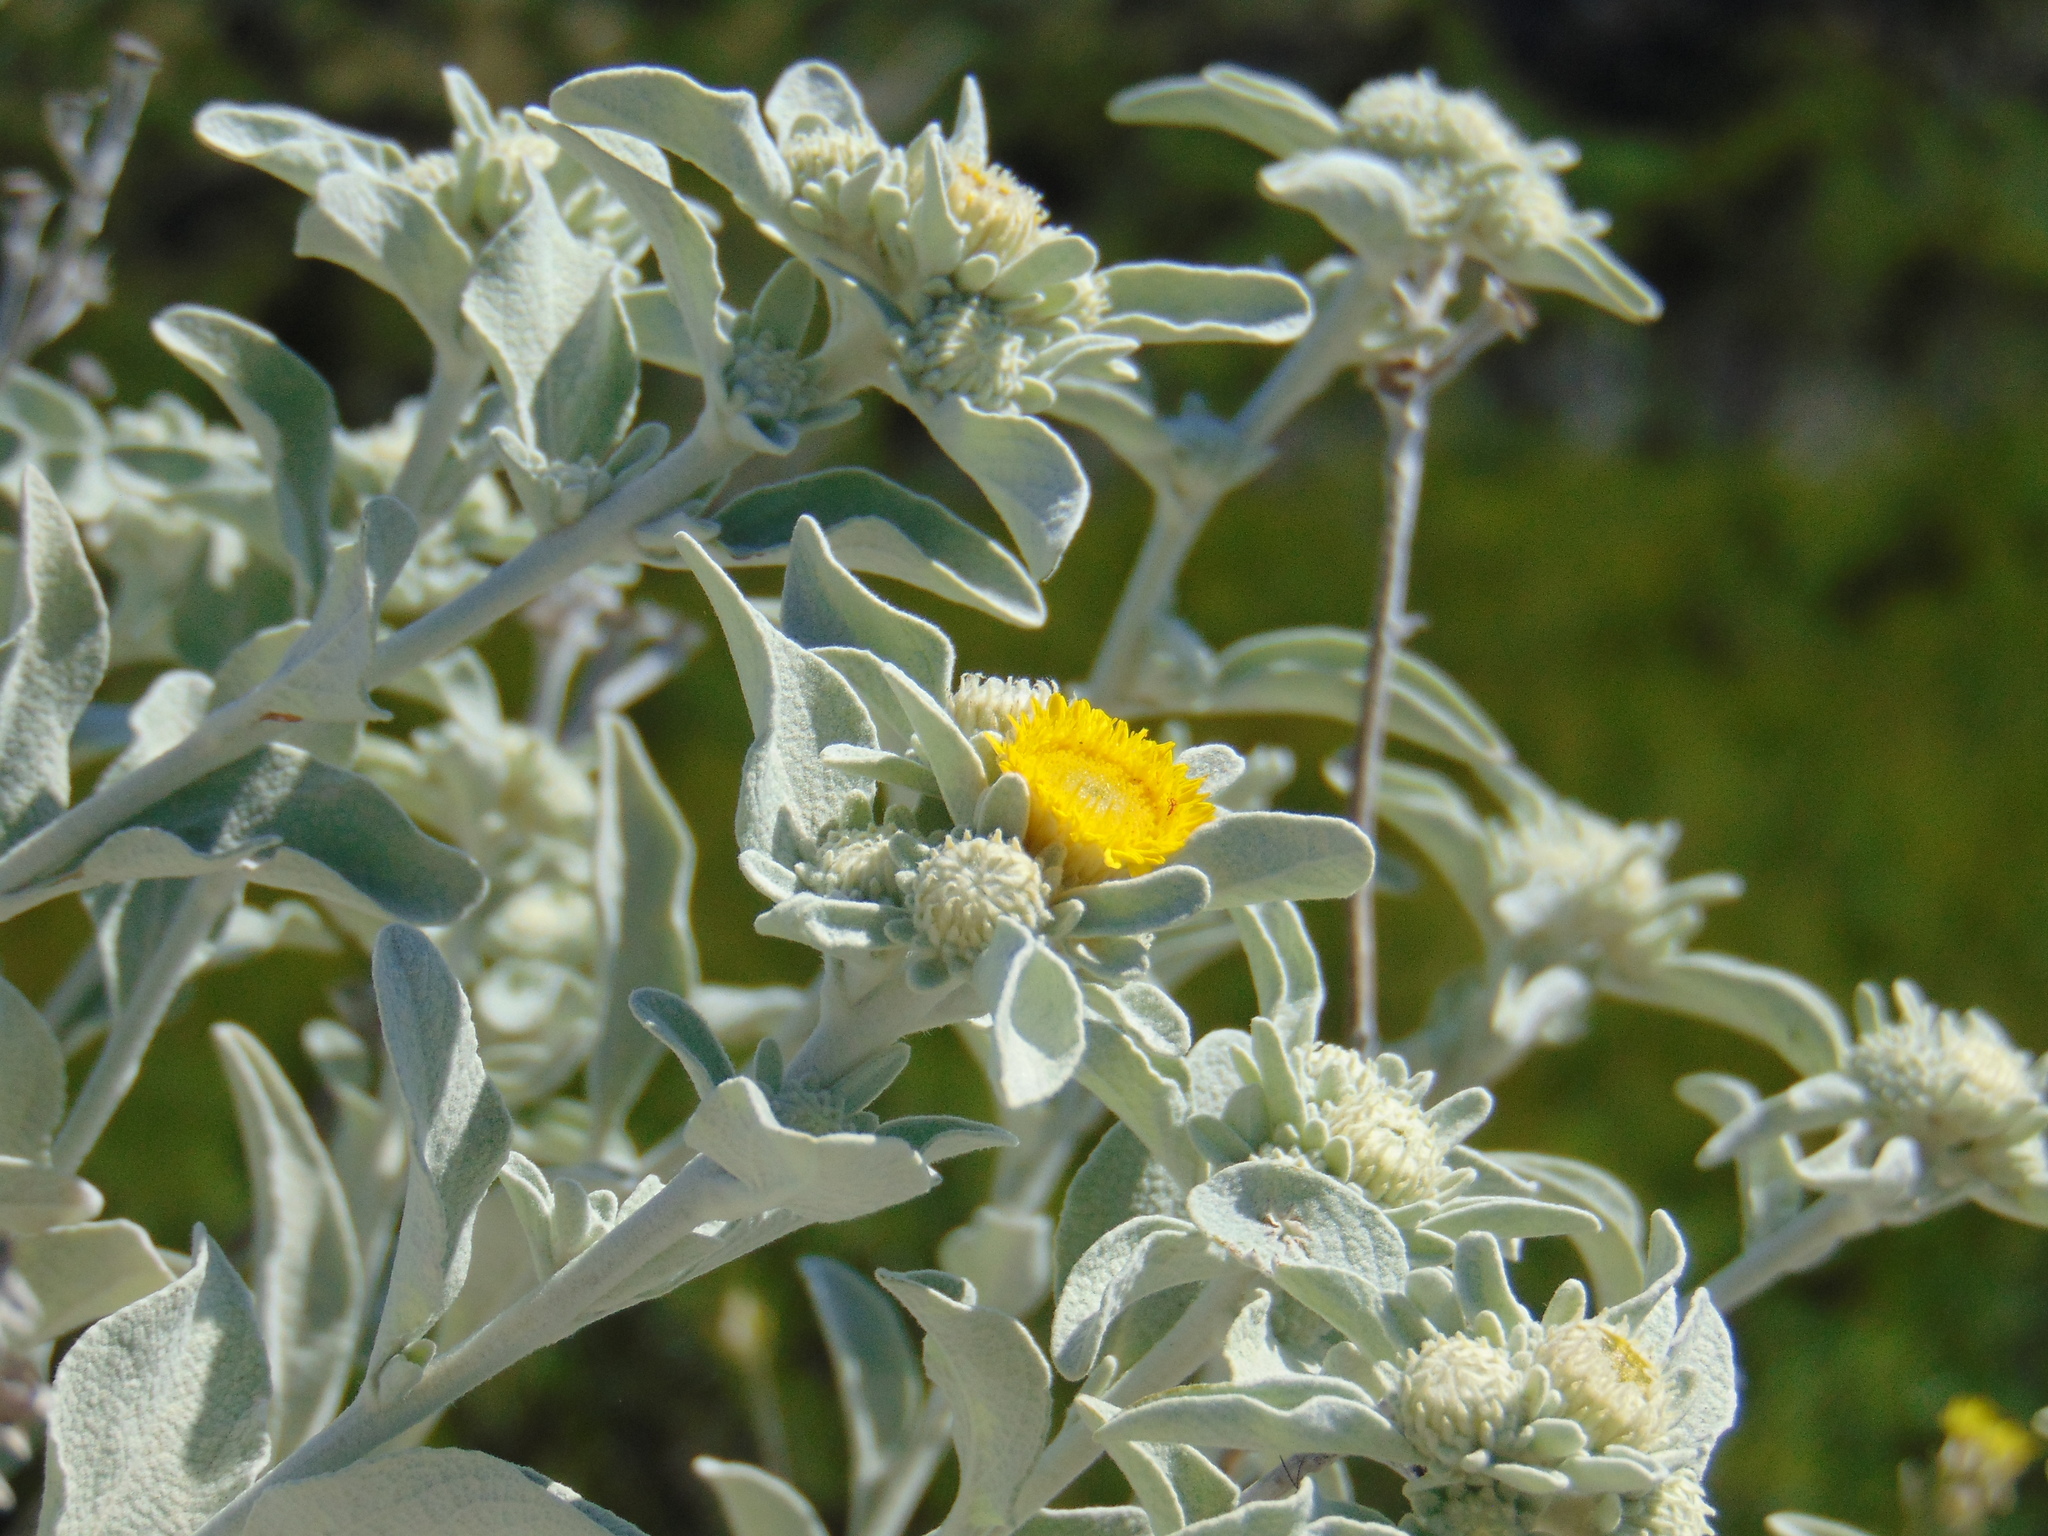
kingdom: Plantae
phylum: Tracheophyta
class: Magnoliopsida
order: Asterales
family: Asteraceae
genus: Pentanema
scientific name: Pentanema verbascifolium
